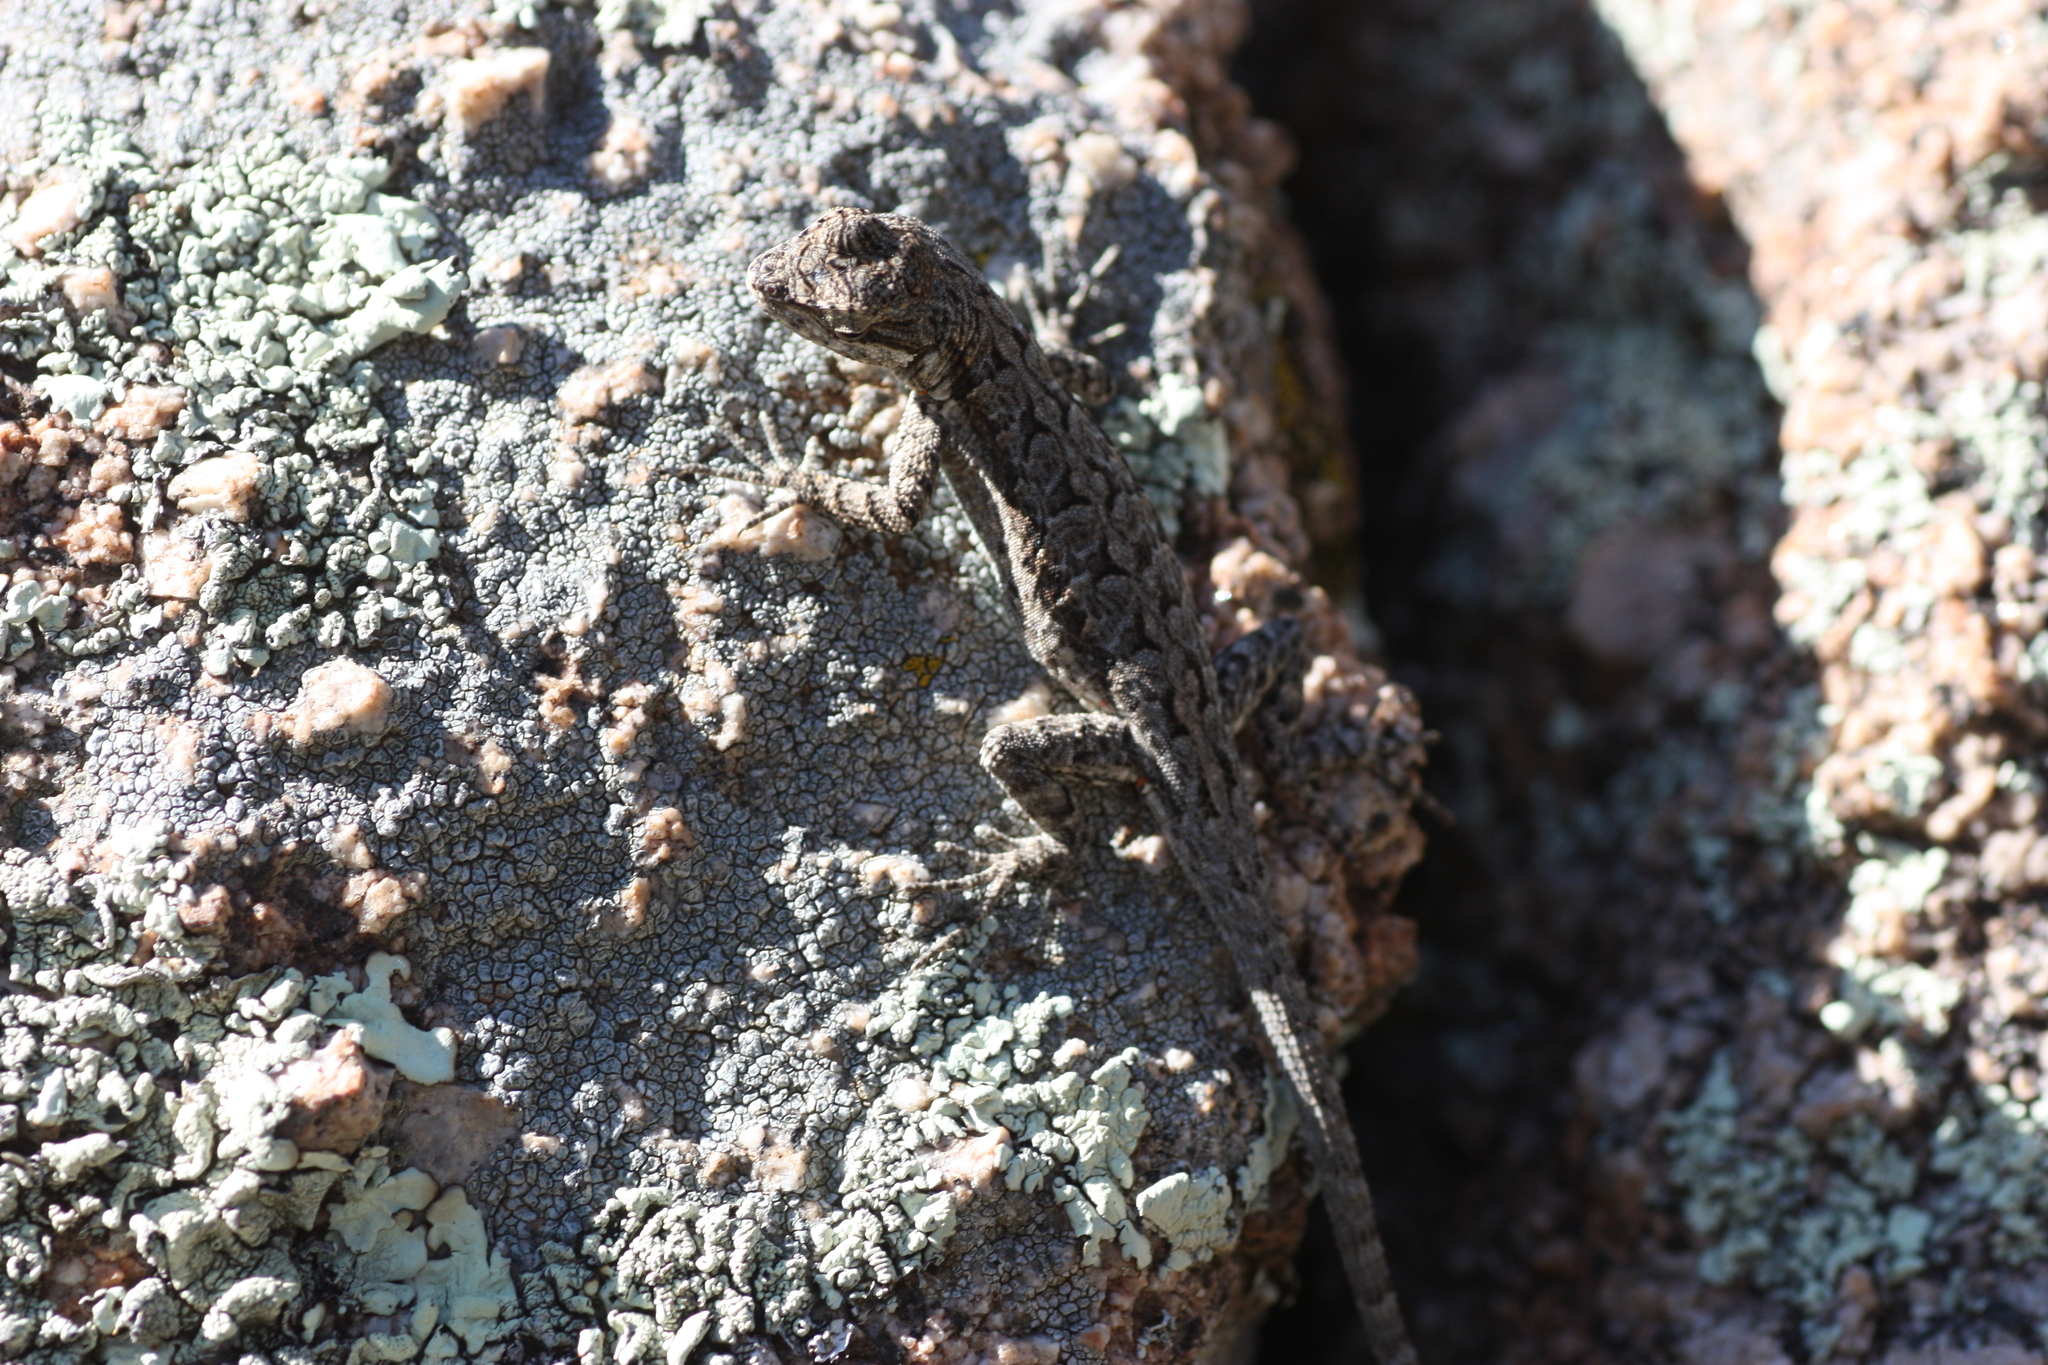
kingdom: Animalia
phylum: Chordata
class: Squamata
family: Phrynosomatidae
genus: Urosaurus
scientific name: Urosaurus ornatus
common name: Ornate tree lizard
